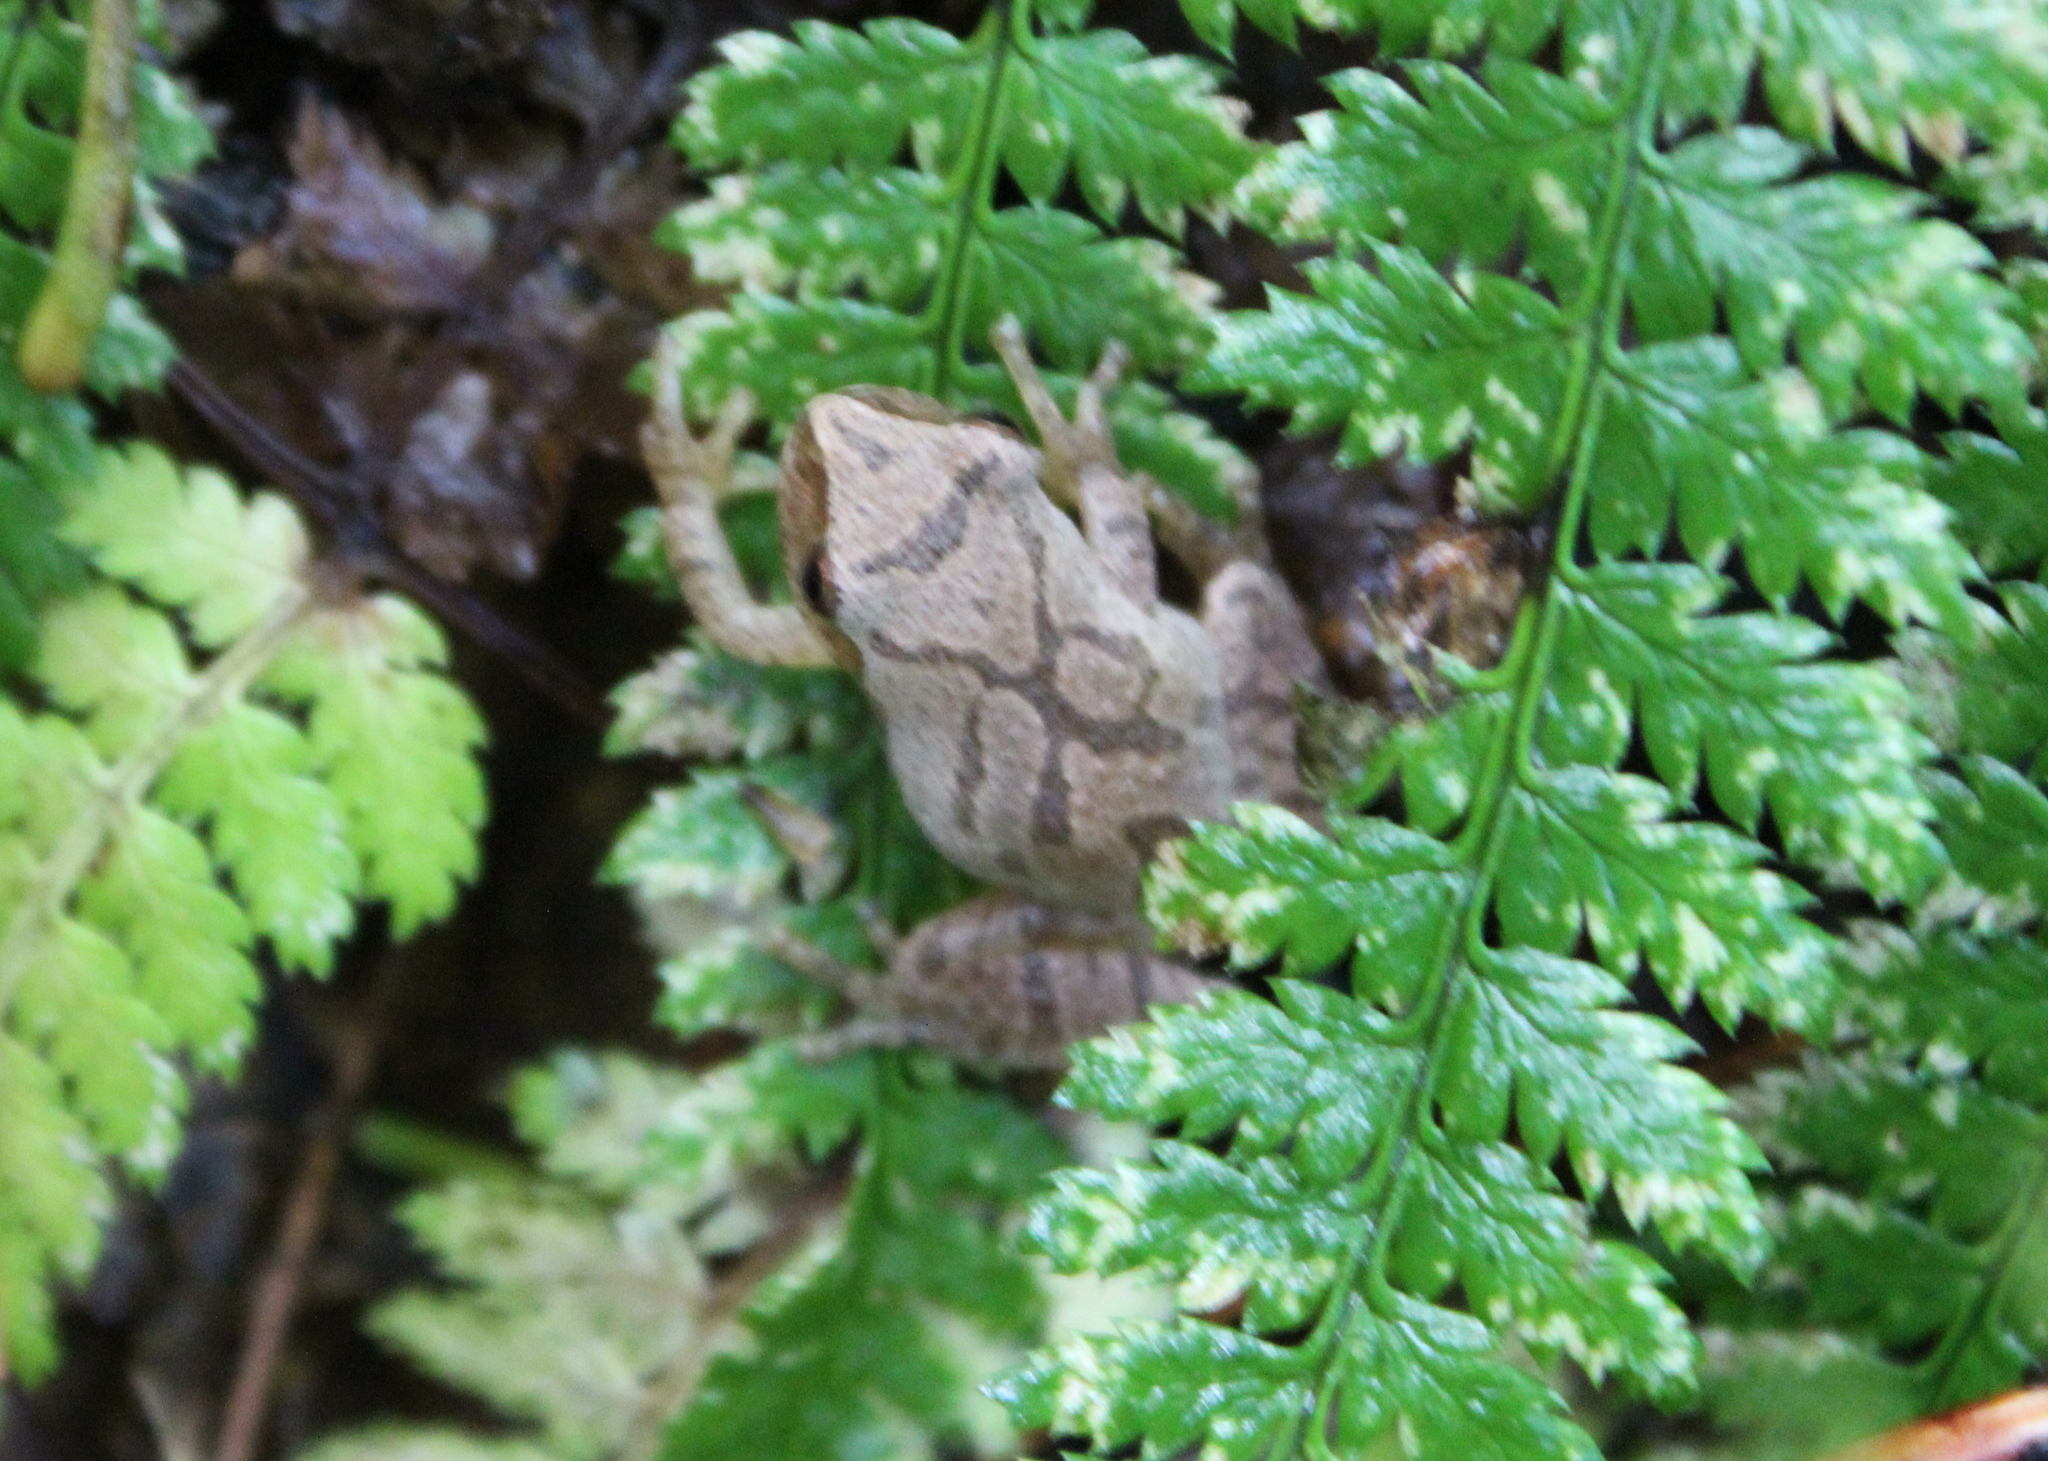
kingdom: Animalia
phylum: Chordata
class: Amphibia
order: Anura
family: Hylidae
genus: Pseudacris
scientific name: Pseudacris crucifer
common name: Spring peeper
